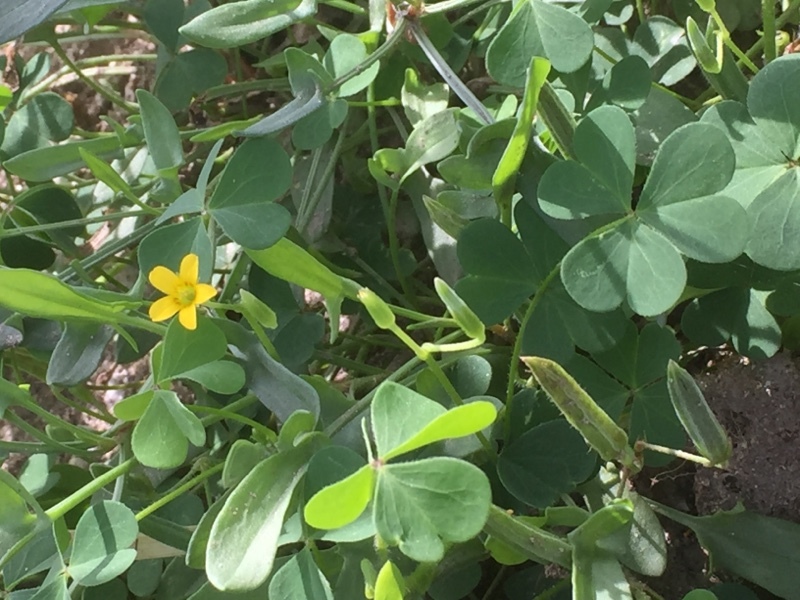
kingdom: Plantae
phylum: Tracheophyta
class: Magnoliopsida
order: Oxalidales
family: Oxalidaceae
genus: Oxalis
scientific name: Oxalis corniculata
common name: Procumbent yellow-sorrel
